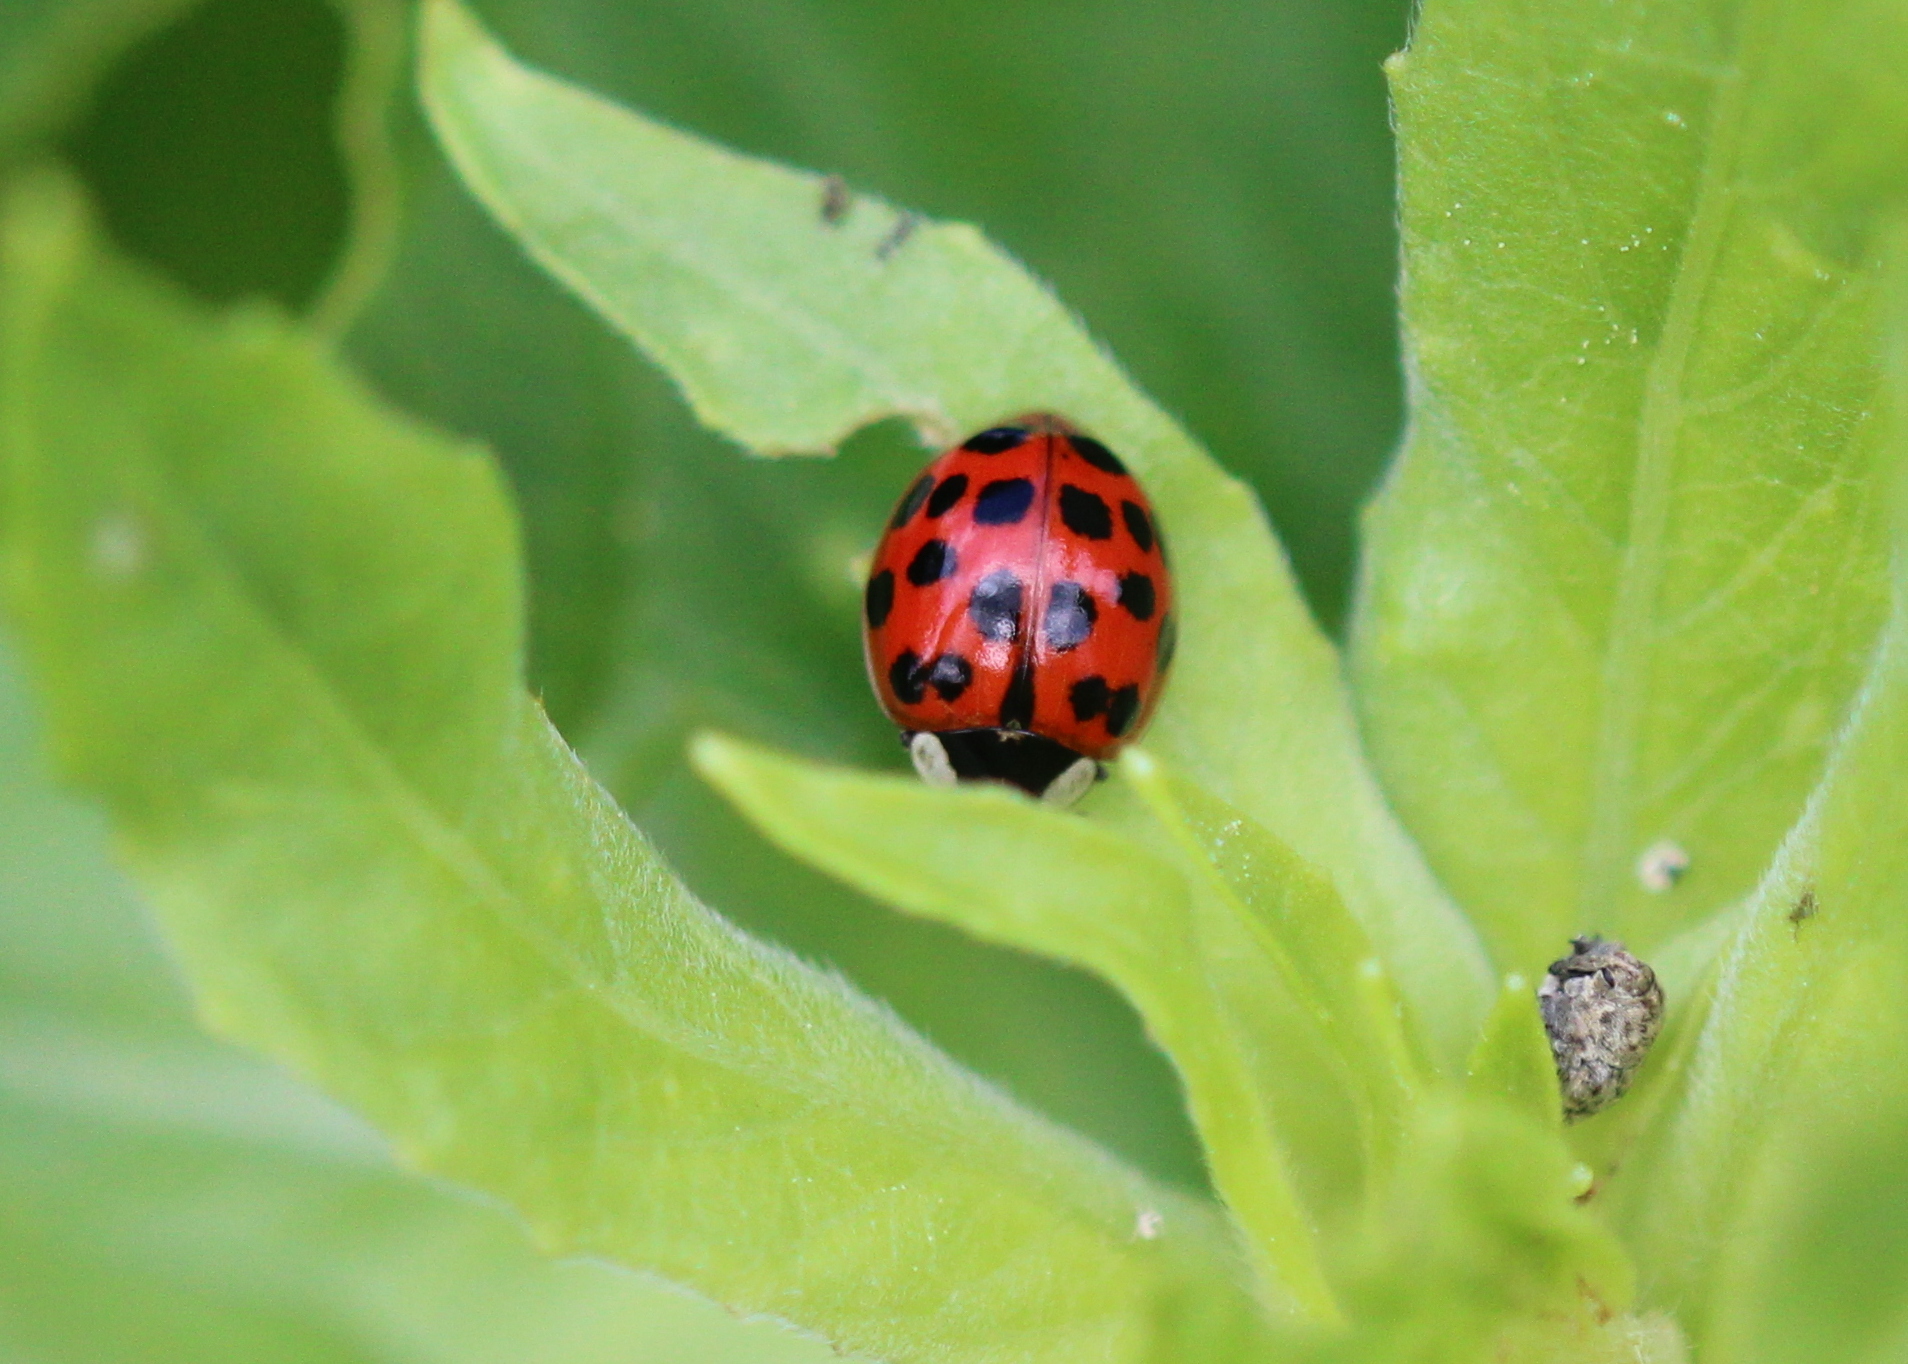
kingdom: Animalia
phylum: Arthropoda
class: Insecta
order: Coleoptera
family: Coccinellidae
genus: Harmonia
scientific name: Harmonia axyridis
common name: Harlequin ladybird
